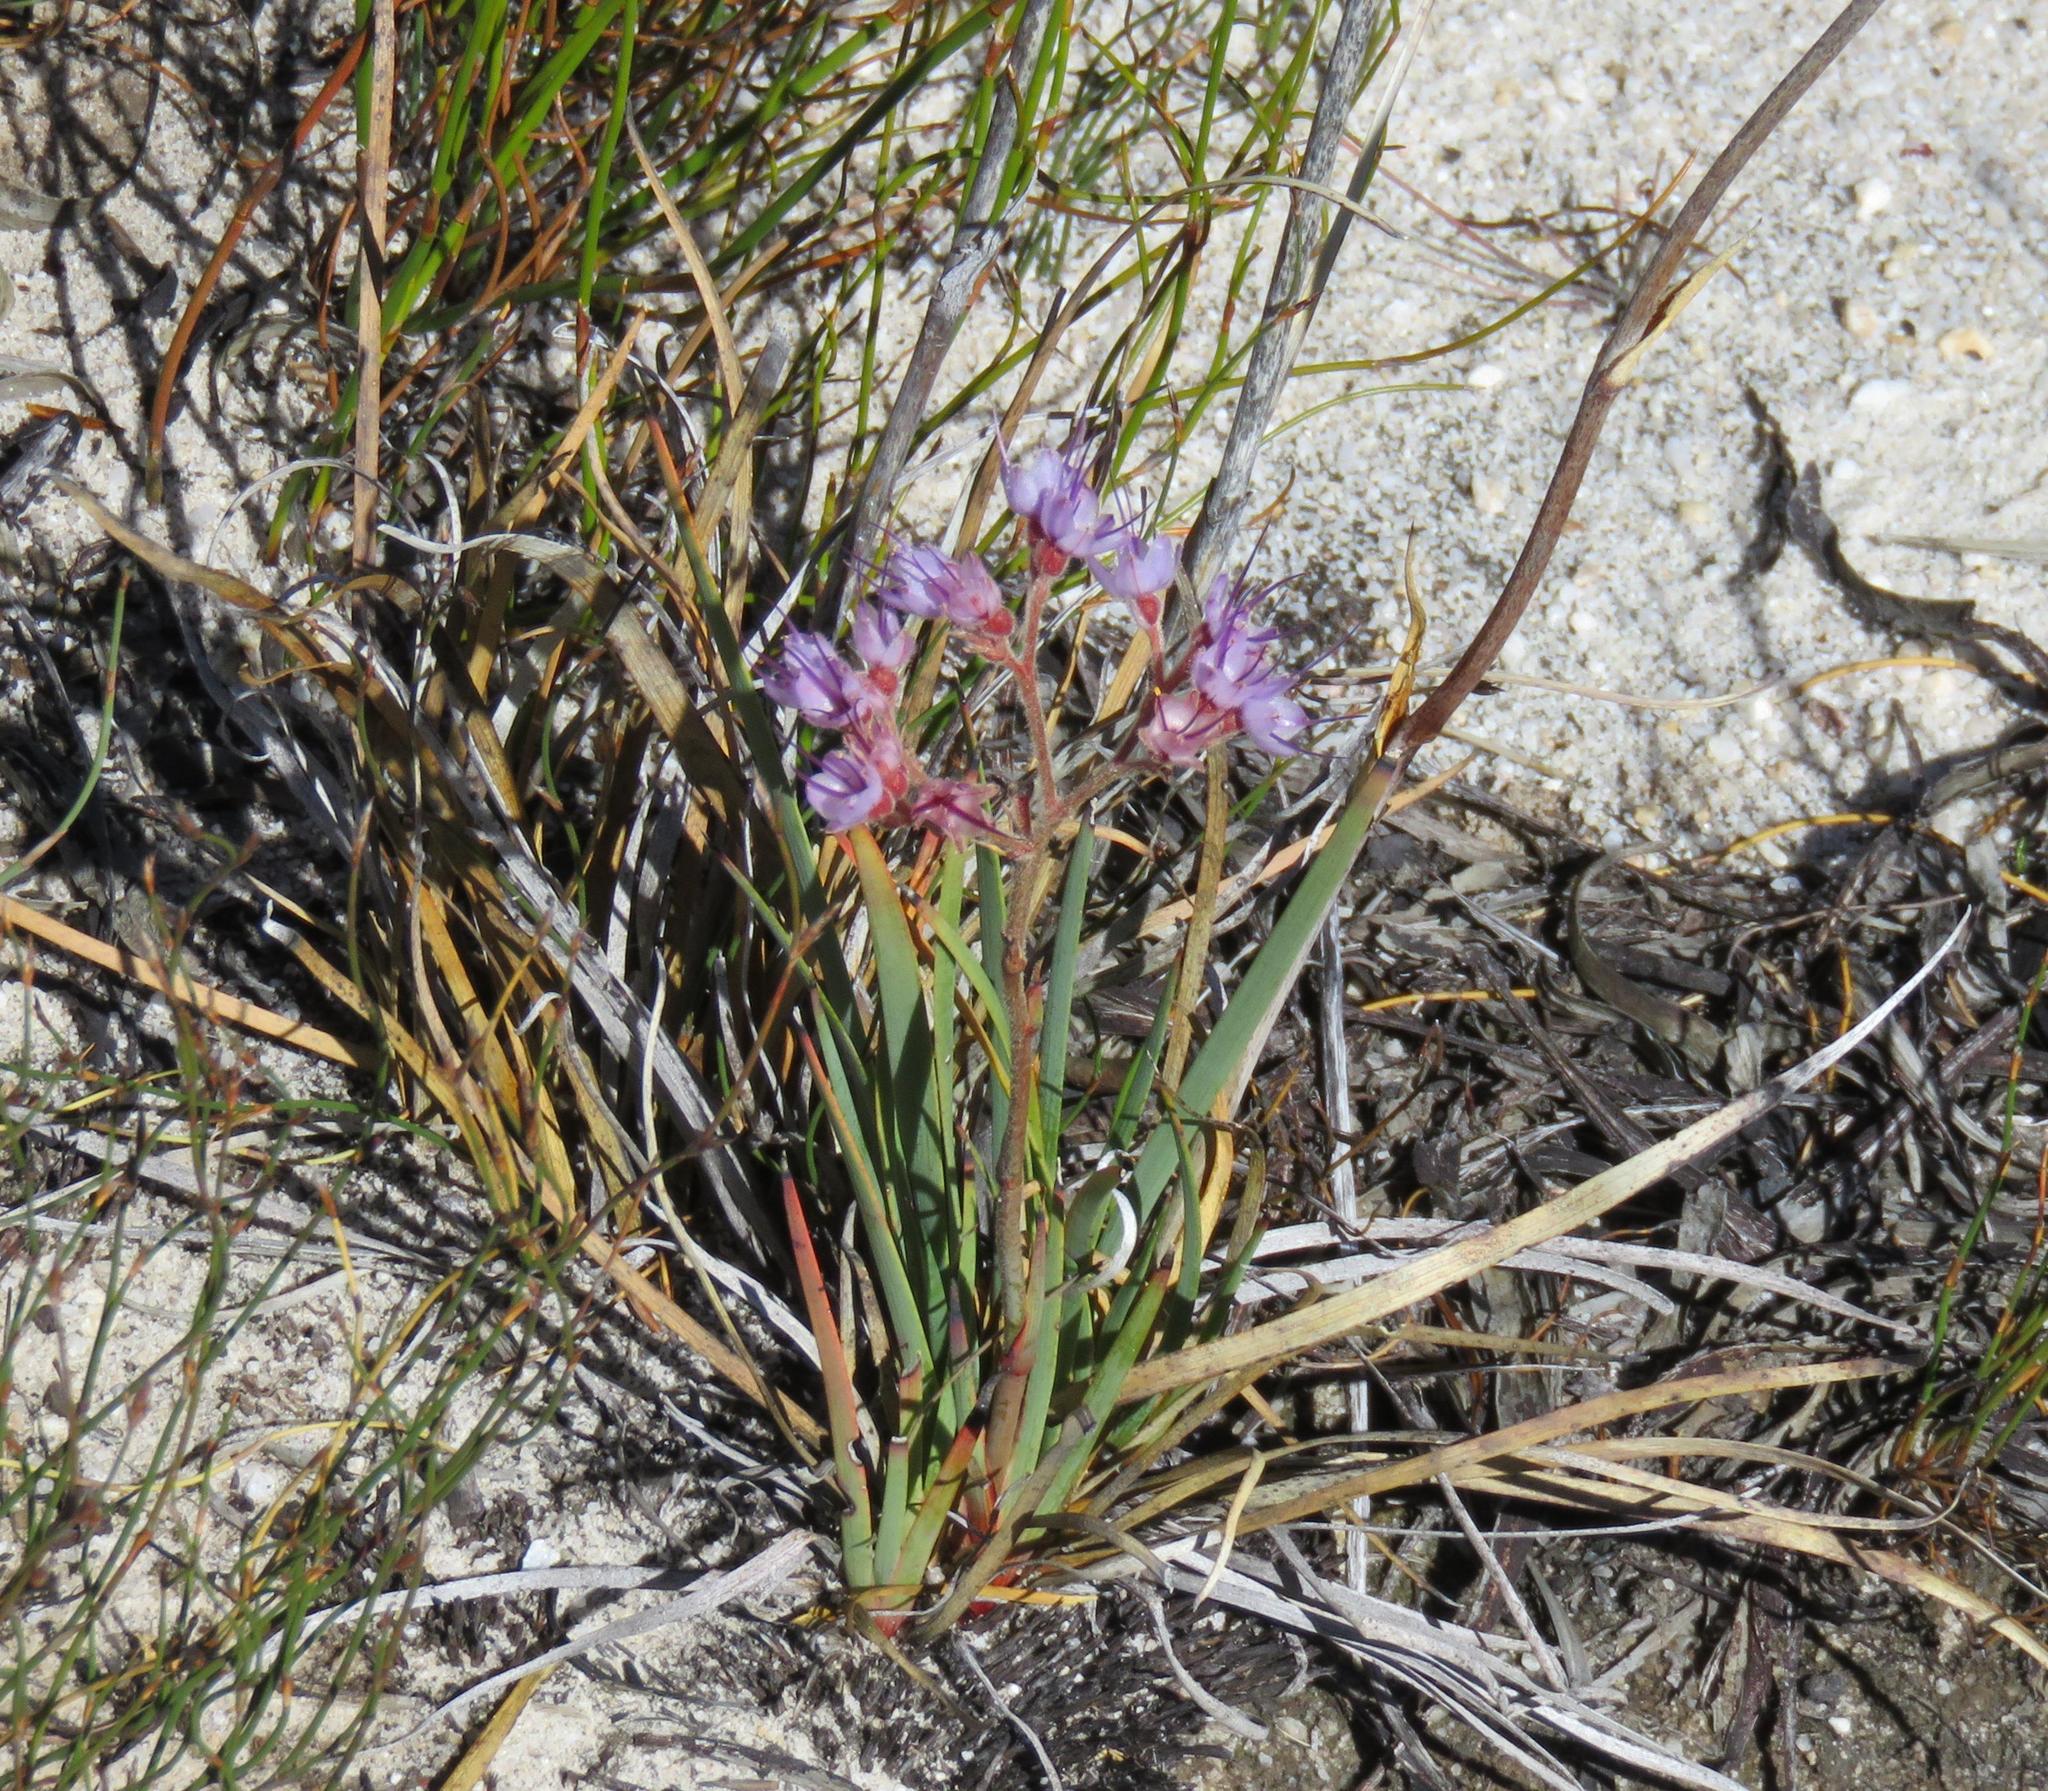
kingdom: Plantae
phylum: Tracheophyta
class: Liliopsida
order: Commelinales
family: Haemodoraceae
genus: Dilatris
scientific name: Dilatris ixioides
